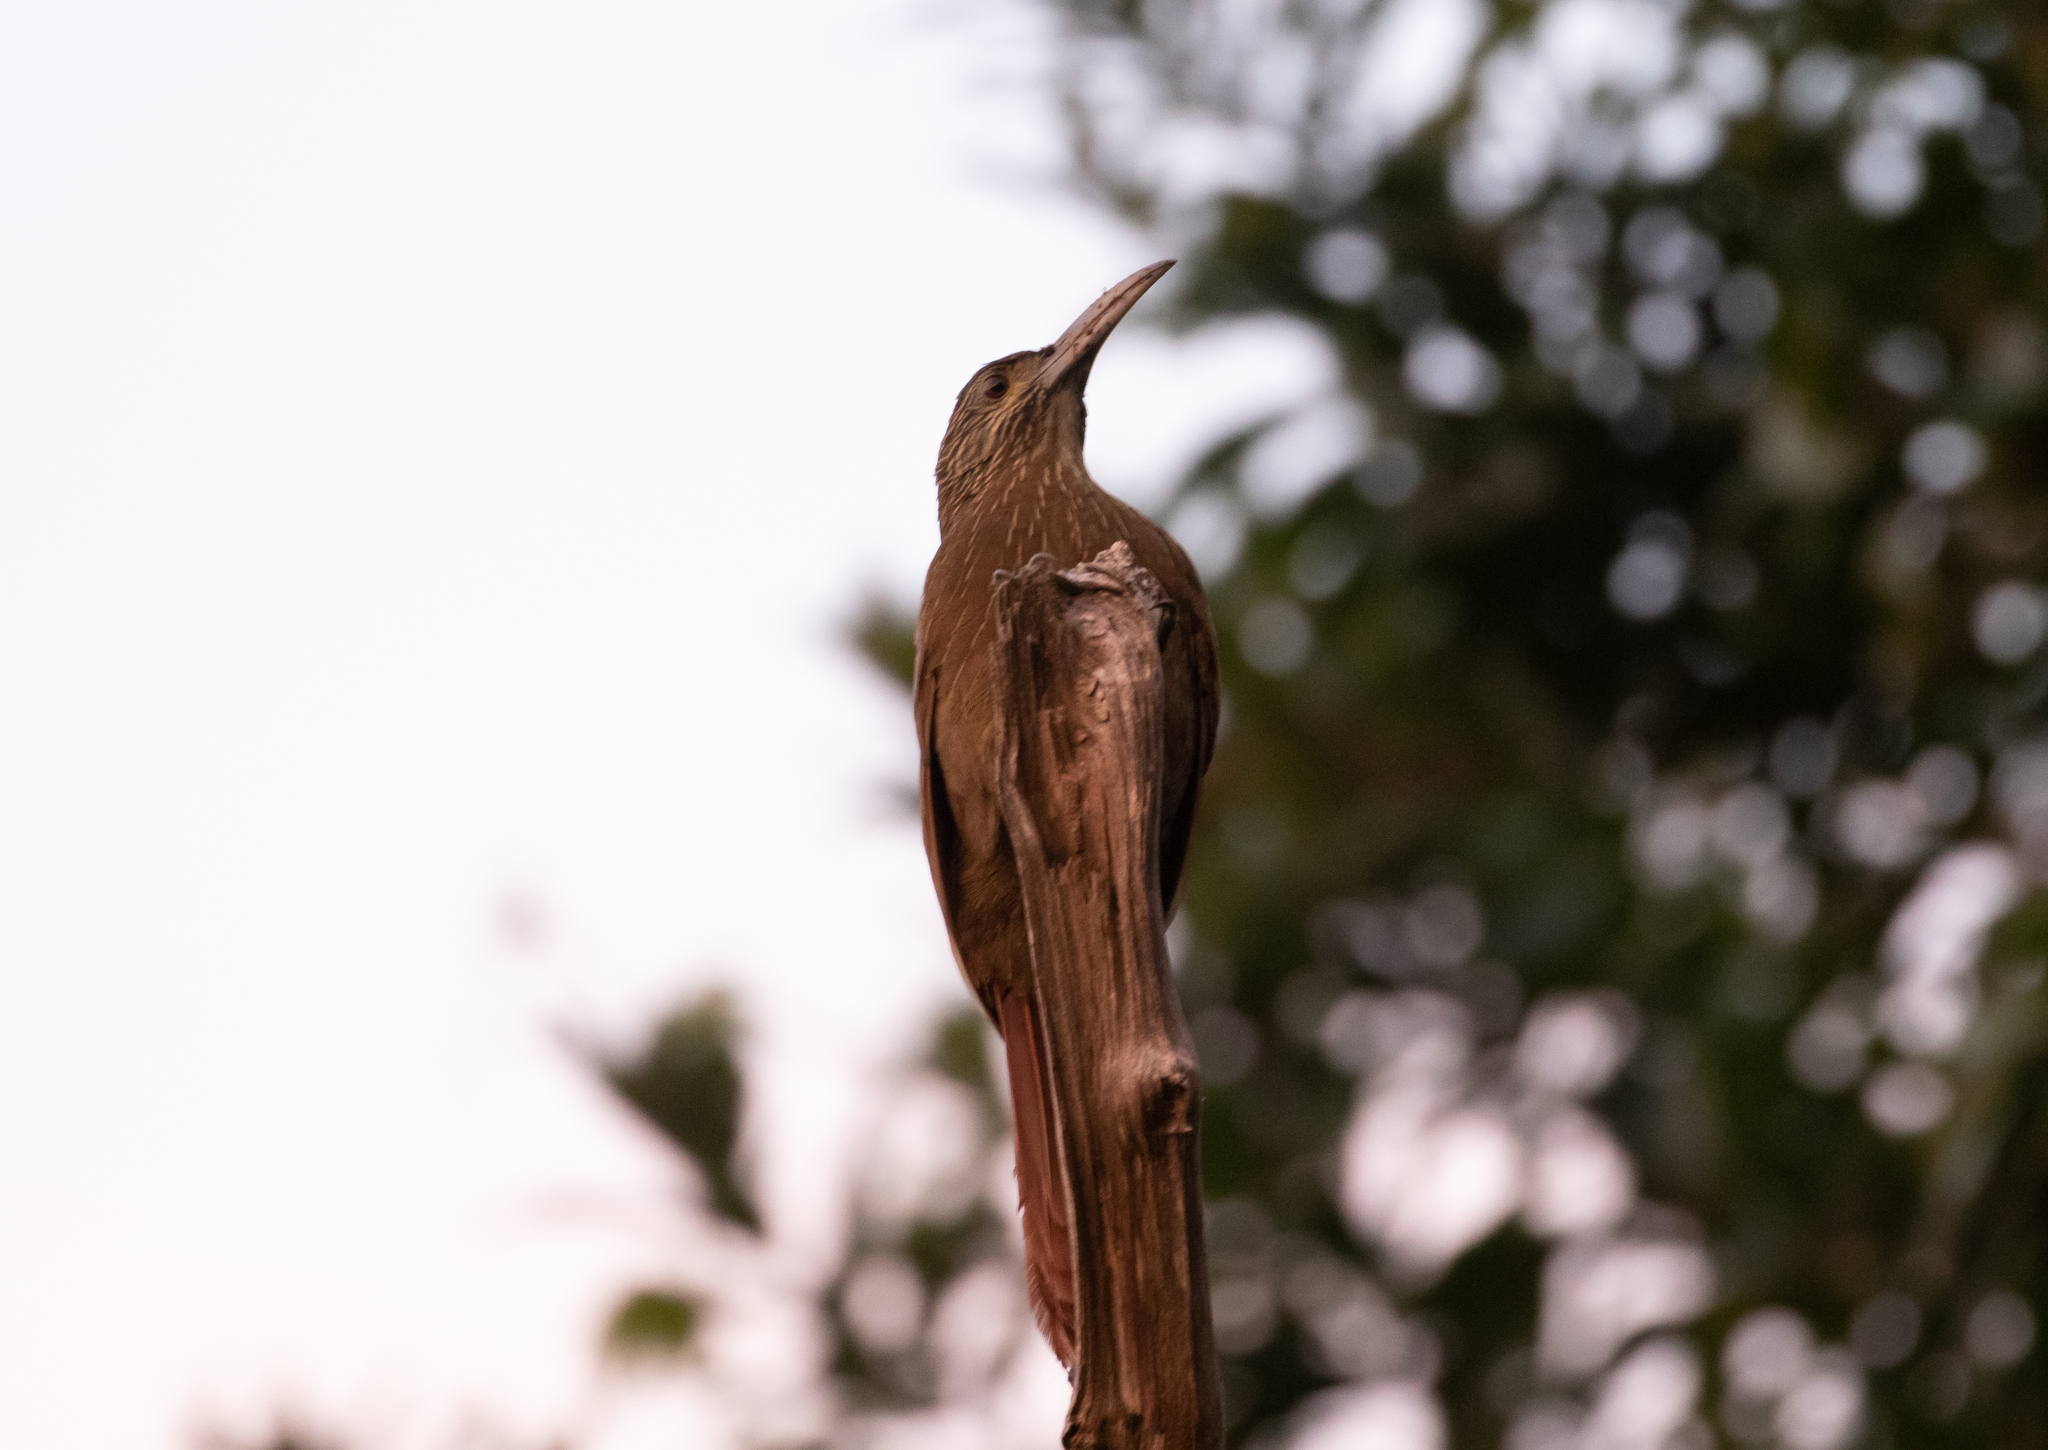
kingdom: Animalia
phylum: Chordata
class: Aves
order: Passeriformes
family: Furnariidae
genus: Xiphocolaptes
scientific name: Xiphocolaptes promeropirhynchus
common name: Strong-billed woodcreeper
